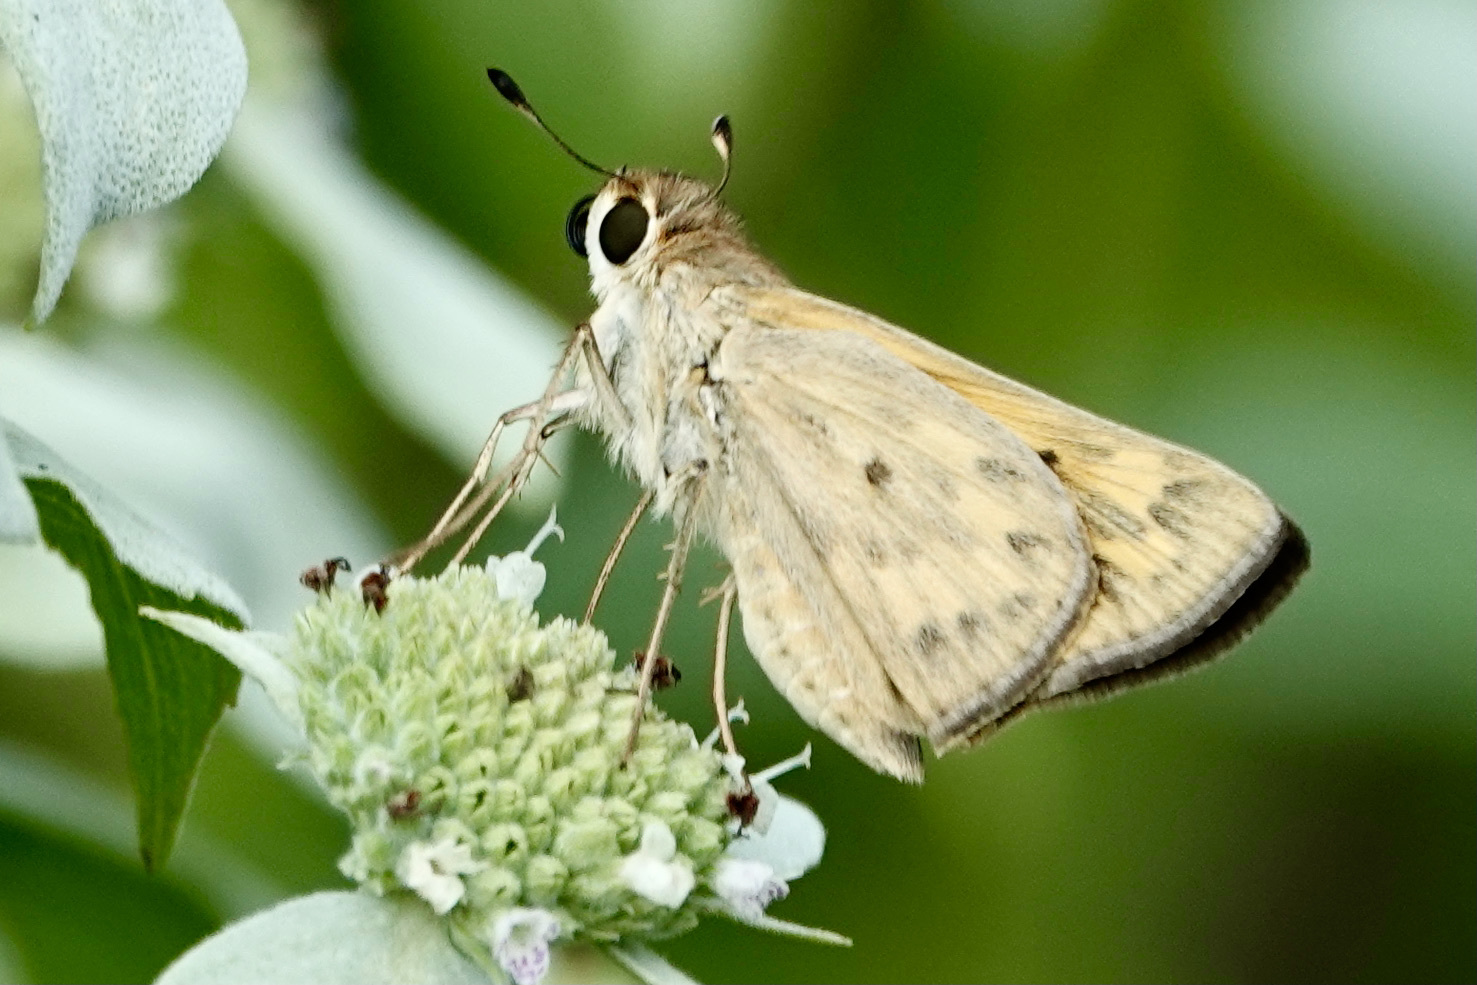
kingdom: Animalia
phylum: Arthropoda
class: Insecta
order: Lepidoptera
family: Hesperiidae
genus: Hylephila
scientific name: Hylephila phyleus
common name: Fiery skipper
